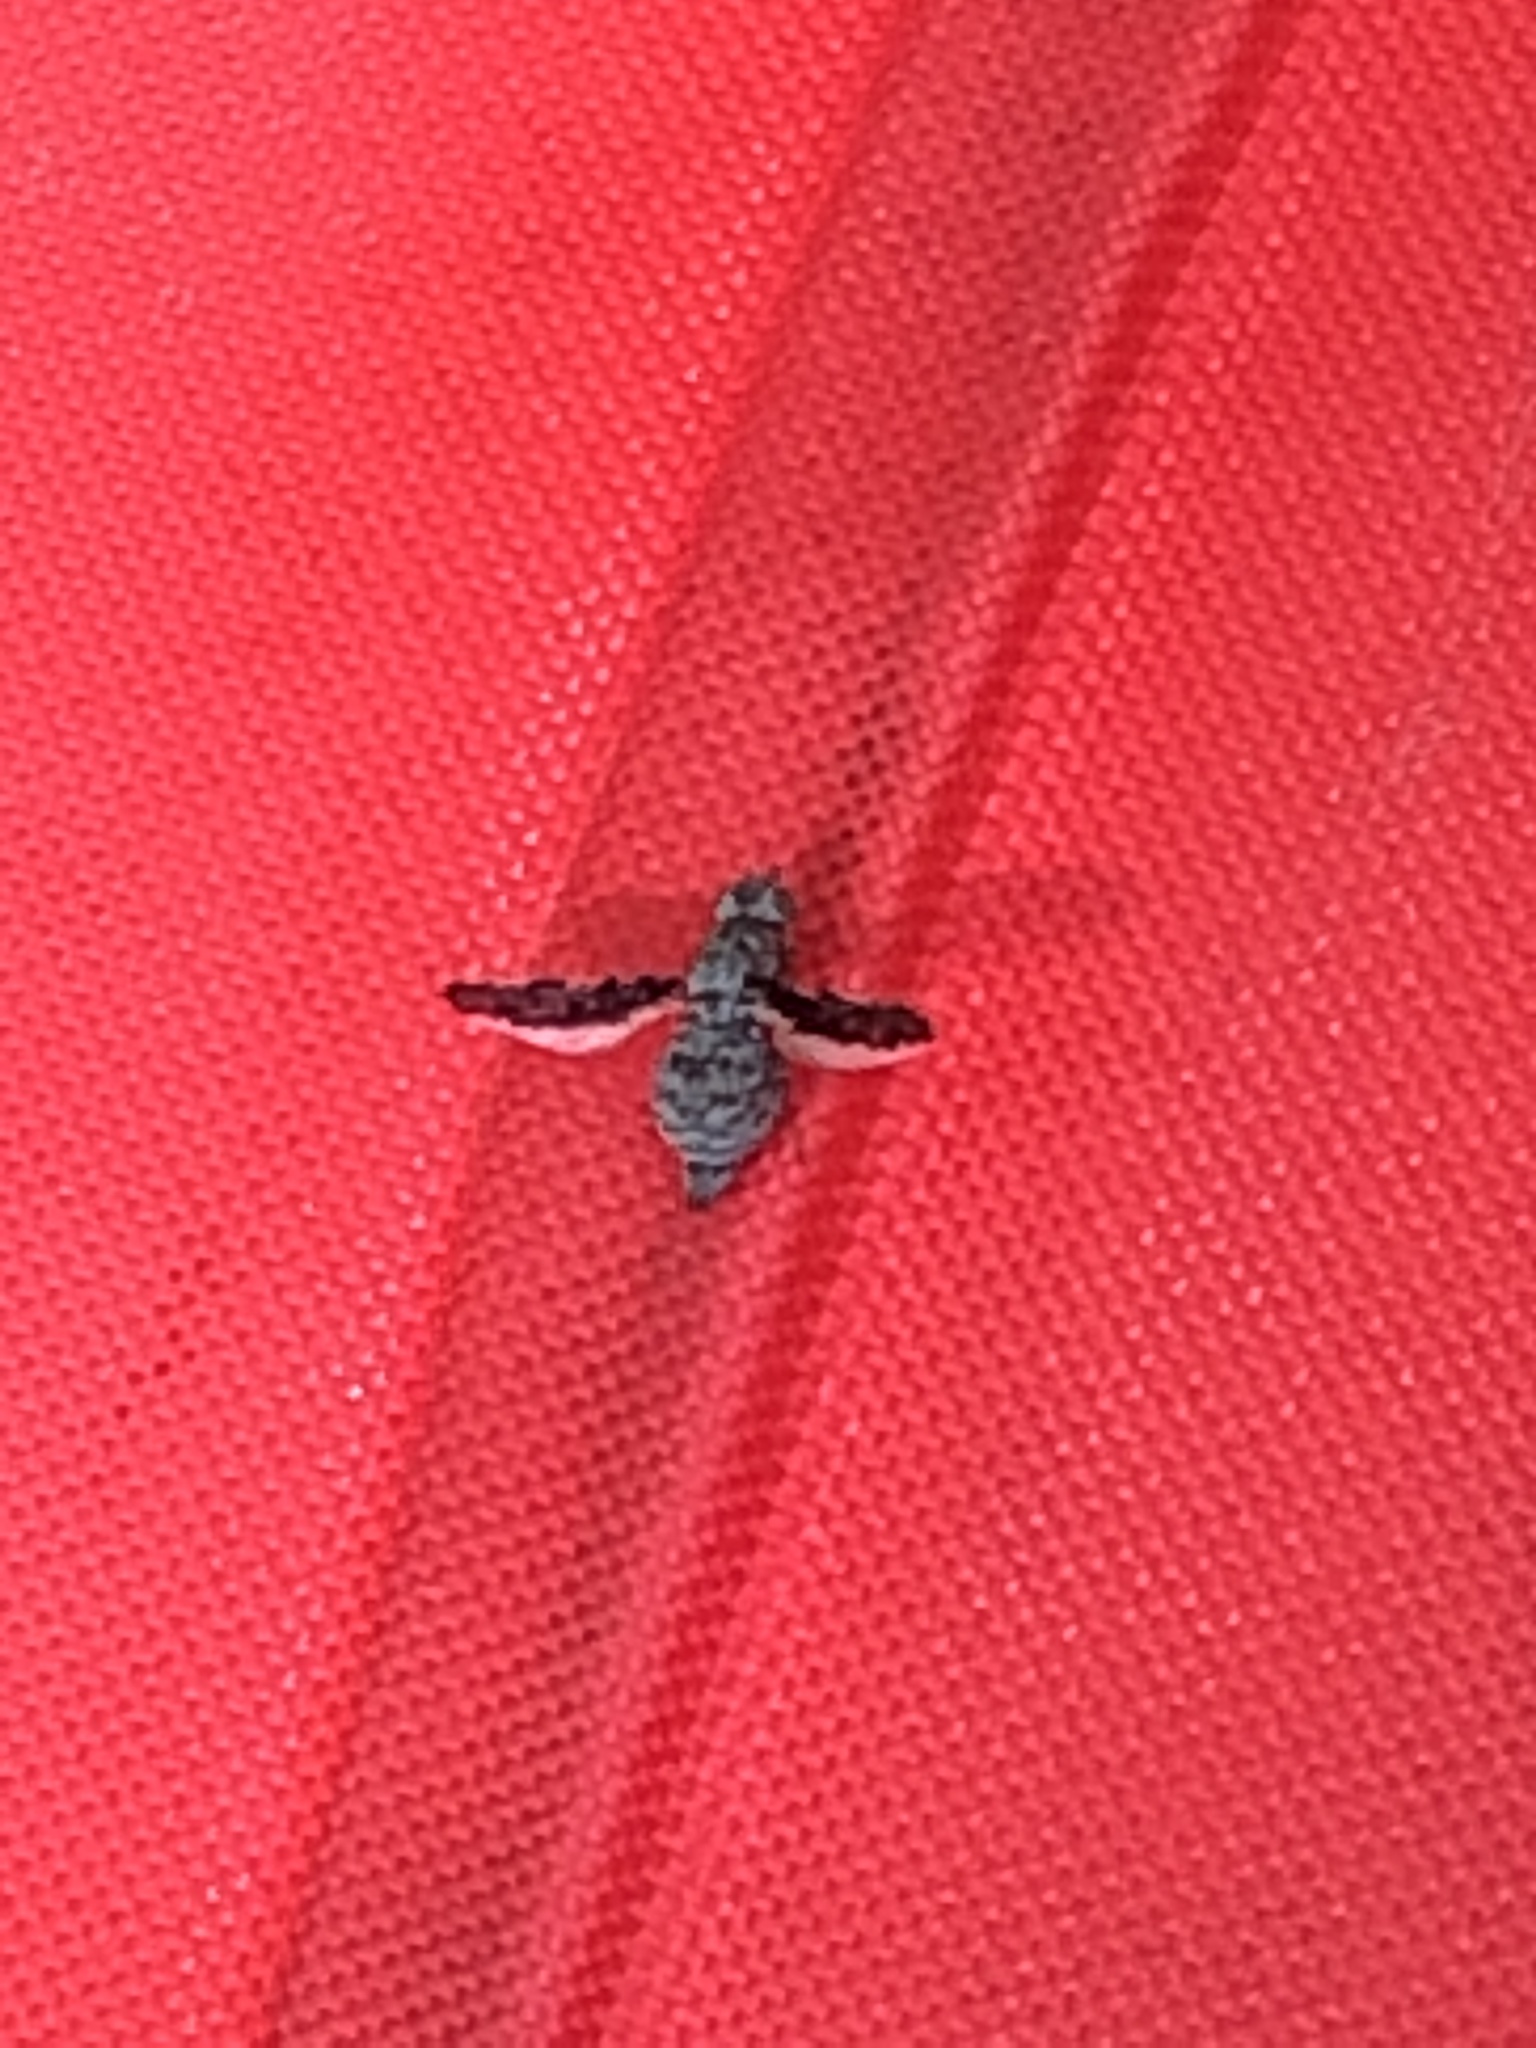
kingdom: Animalia
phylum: Arthropoda
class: Insecta
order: Diptera
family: Ulidiidae
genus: Callopistromyia
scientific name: Callopistromyia strigula
